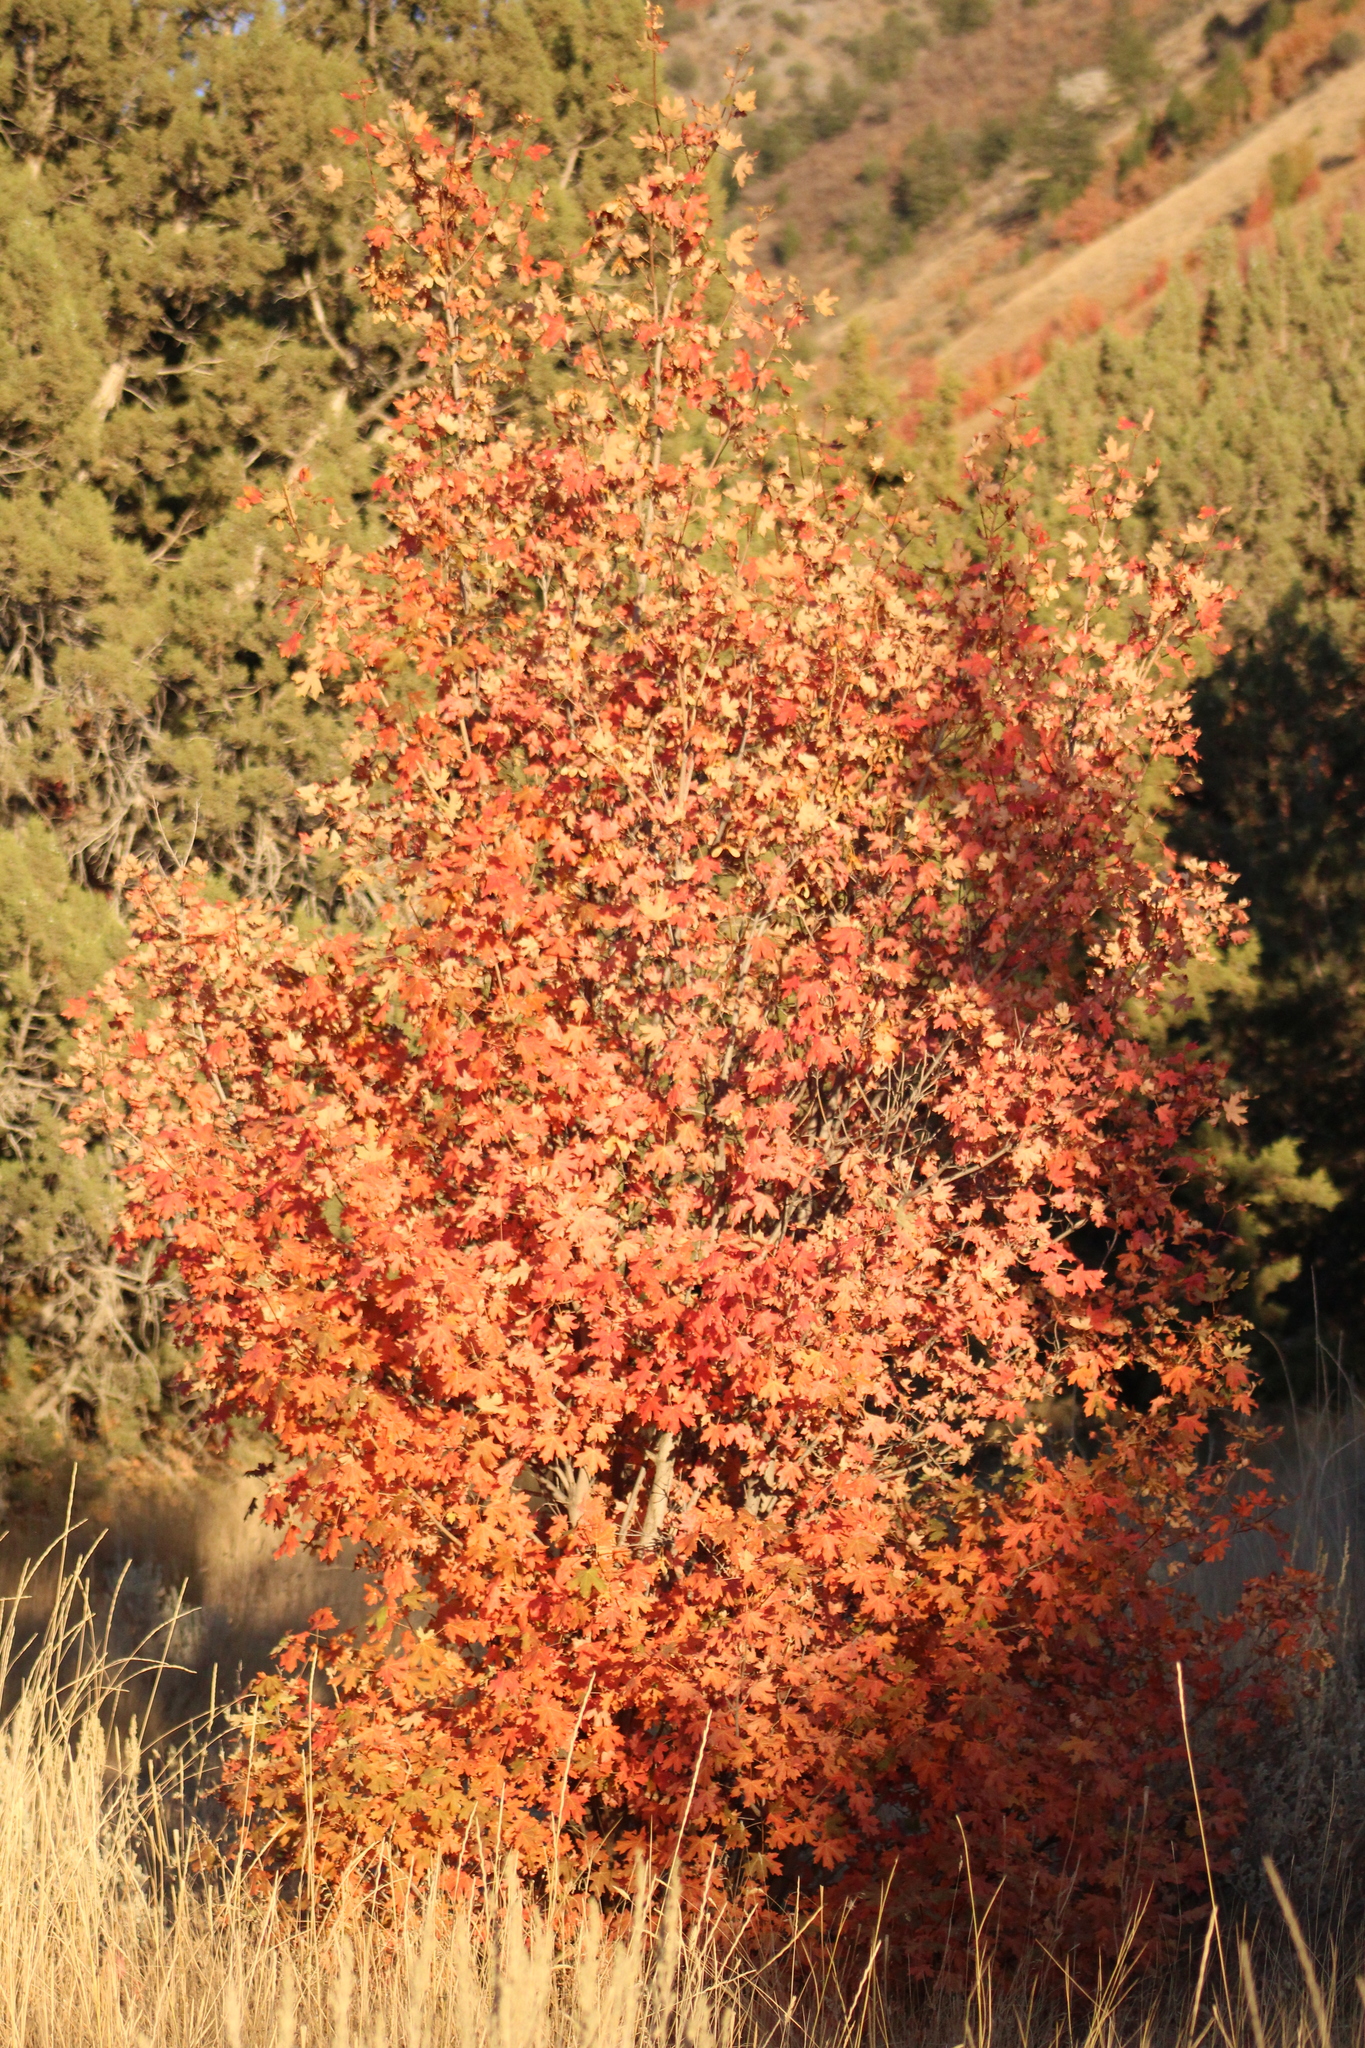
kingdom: Plantae
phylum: Tracheophyta
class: Magnoliopsida
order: Sapindales
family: Sapindaceae
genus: Acer
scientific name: Acer grandidentatum
